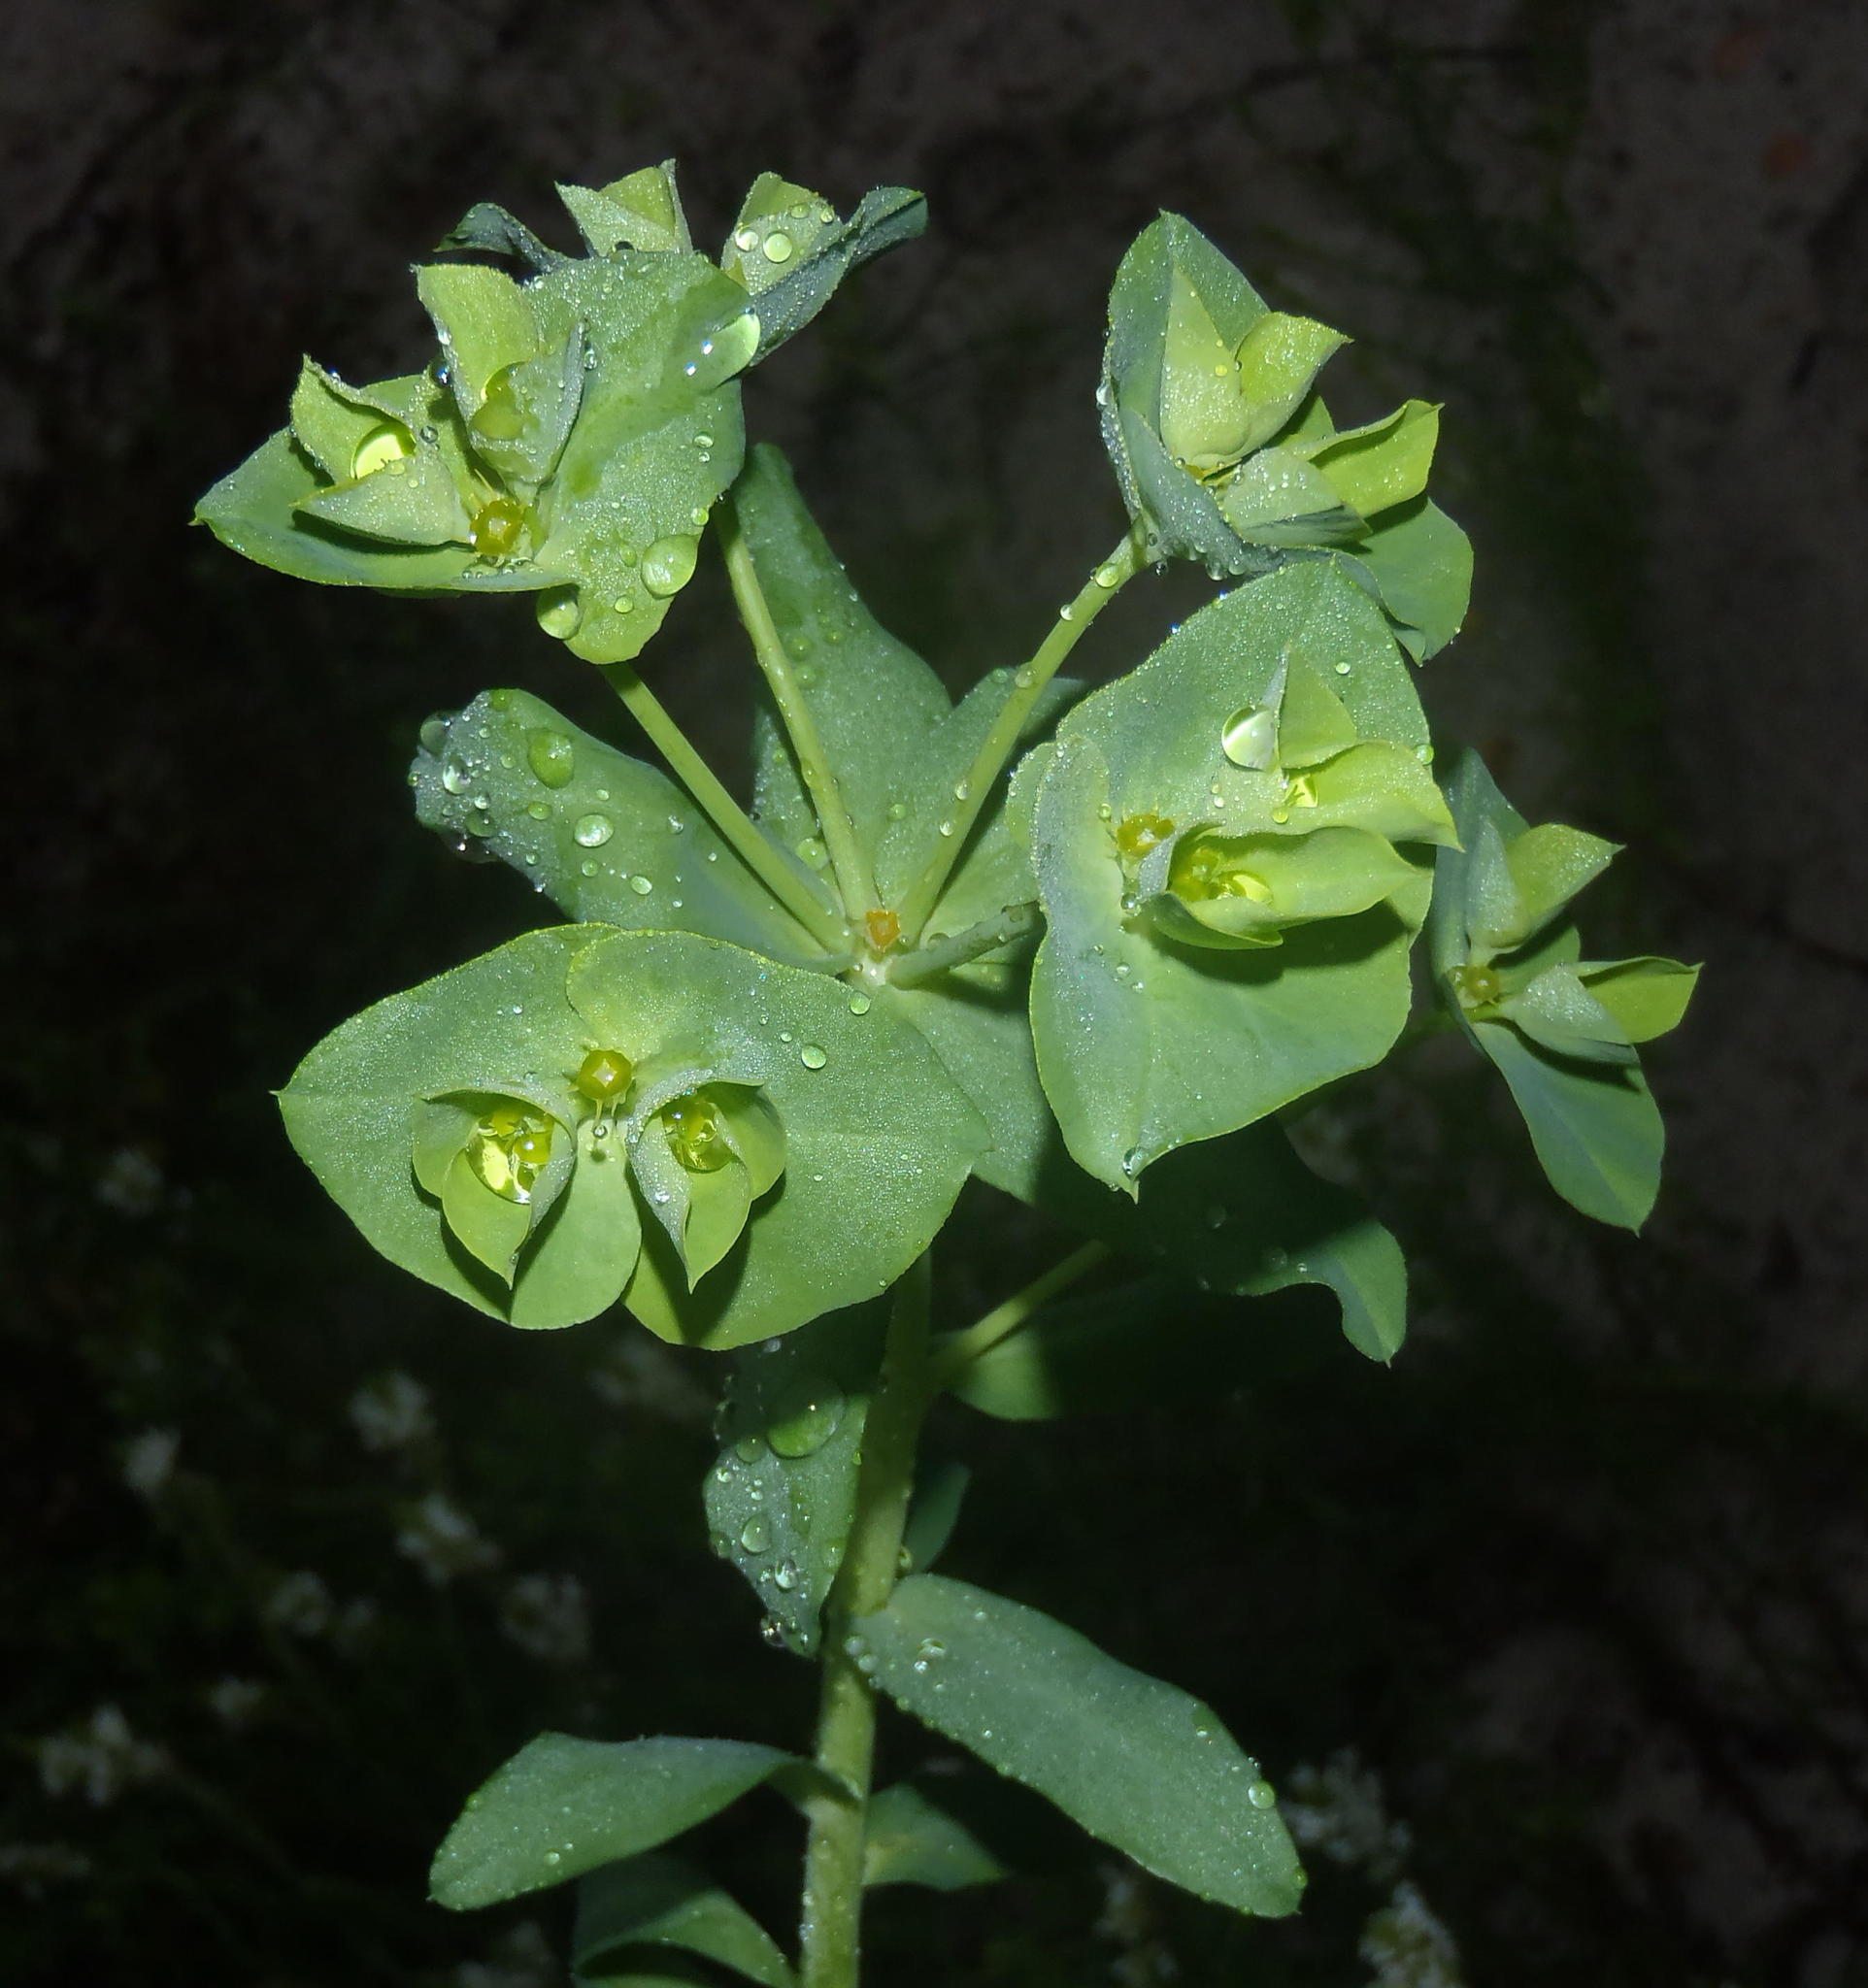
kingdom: Plantae
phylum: Tracheophyta
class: Magnoliopsida
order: Malpighiales
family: Euphorbiaceae
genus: Euphorbia
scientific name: Euphorbia terracina
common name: Geraldton carnation weed
